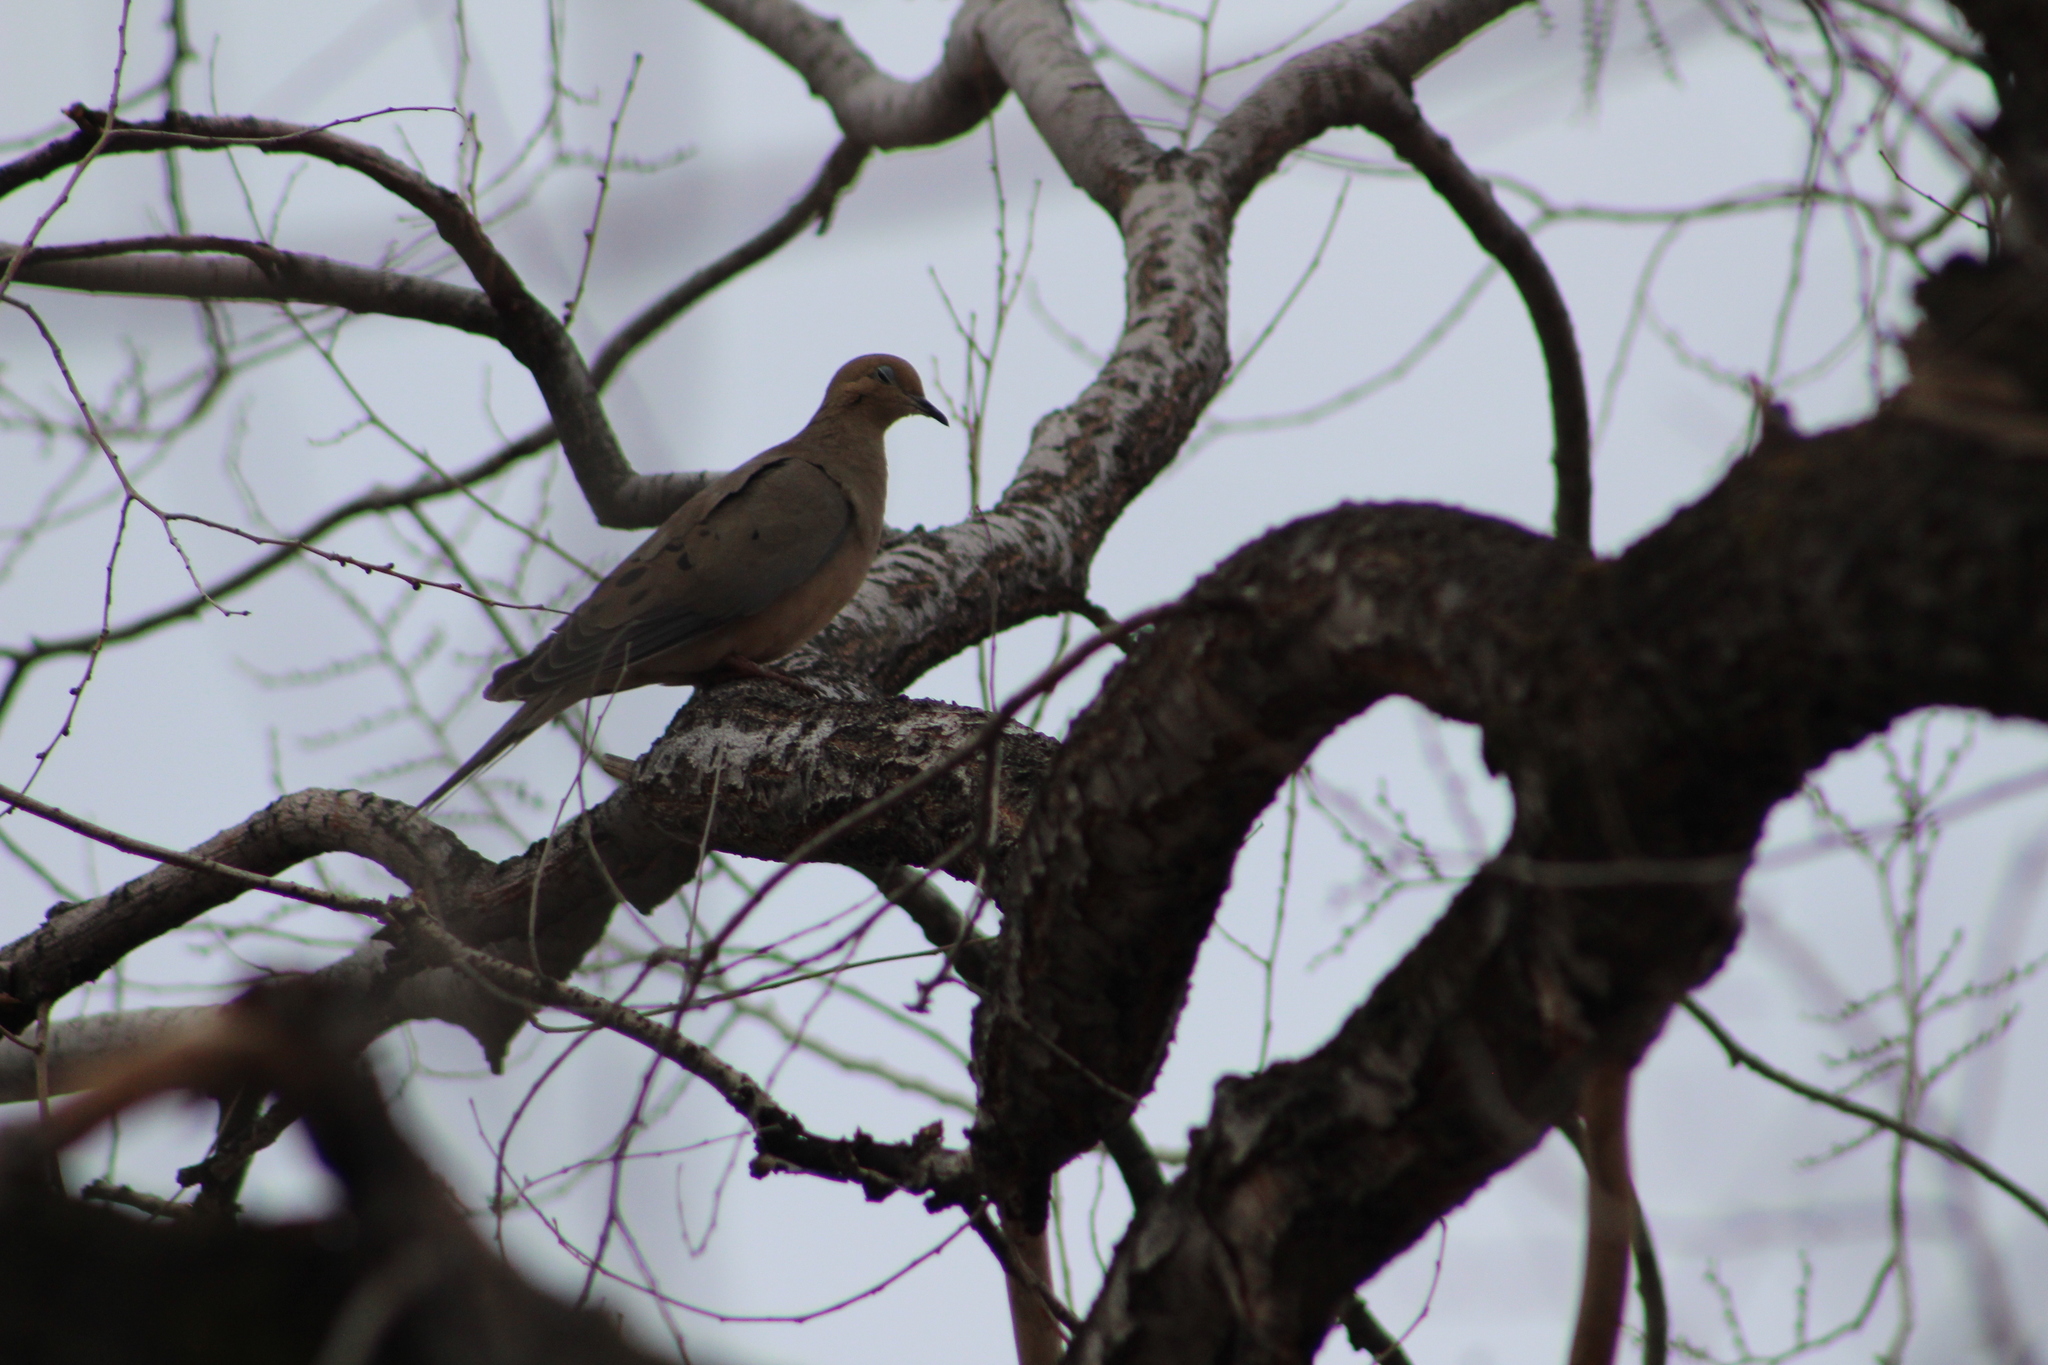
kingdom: Animalia
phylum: Chordata
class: Aves
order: Columbiformes
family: Columbidae
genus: Zenaida
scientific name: Zenaida macroura
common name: Mourning dove
